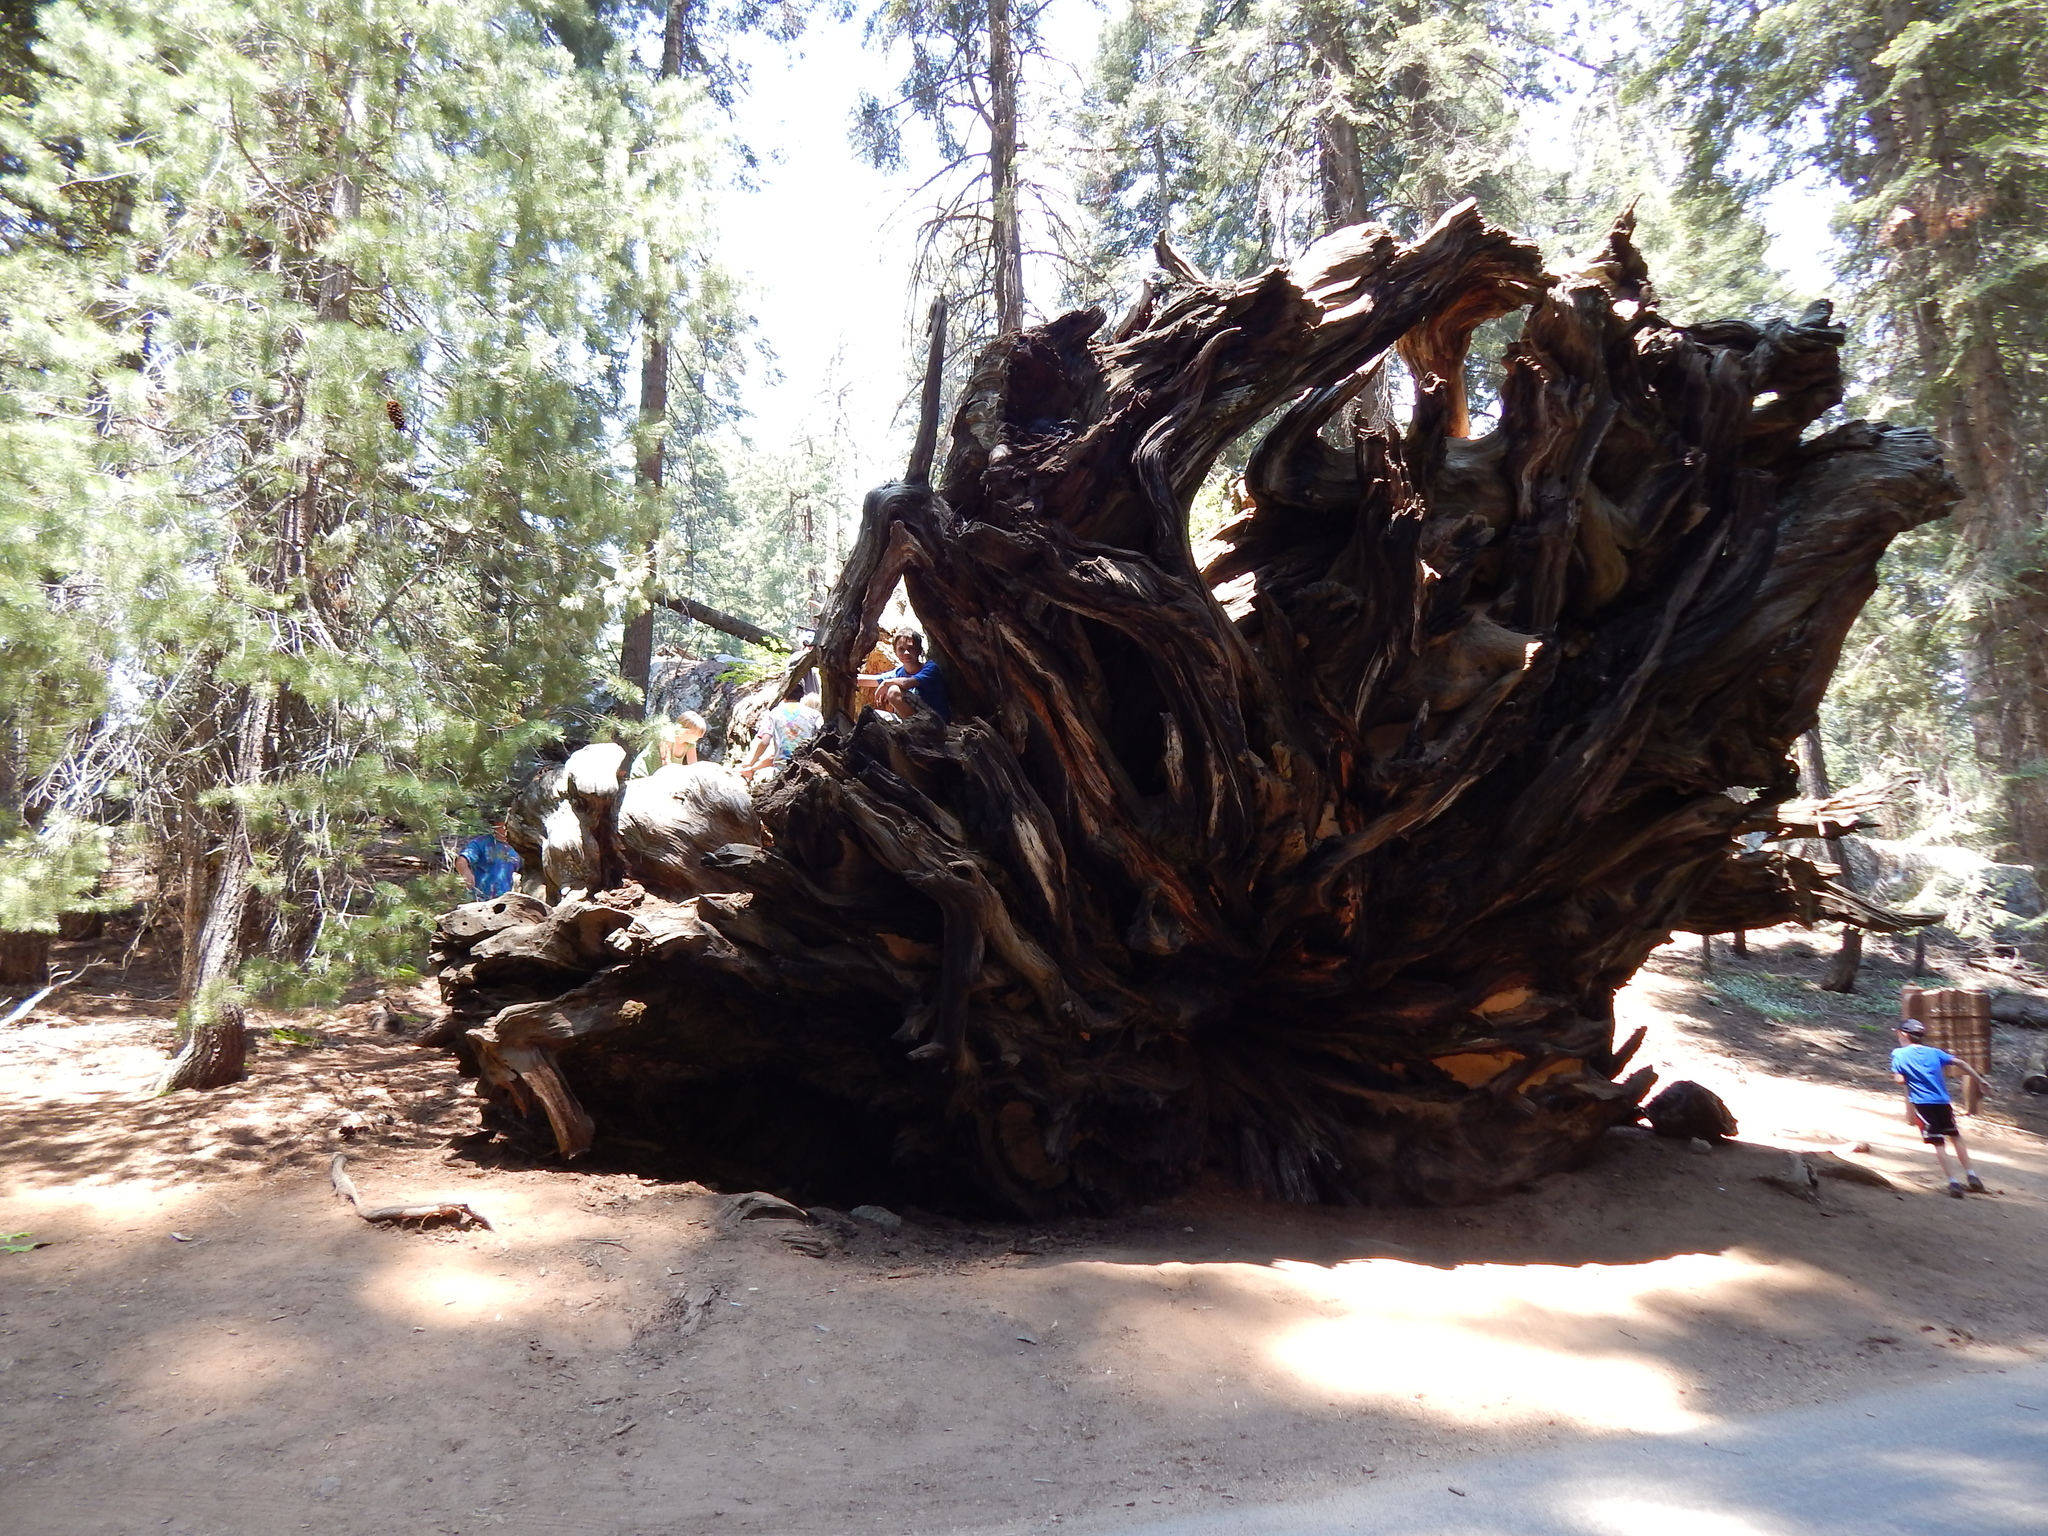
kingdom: Plantae
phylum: Tracheophyta
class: Pinopsida
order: Pinales
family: Cupressaceae
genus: Sequoiadendron
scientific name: Sequoiadendron giganteum
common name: Wellingtonia
